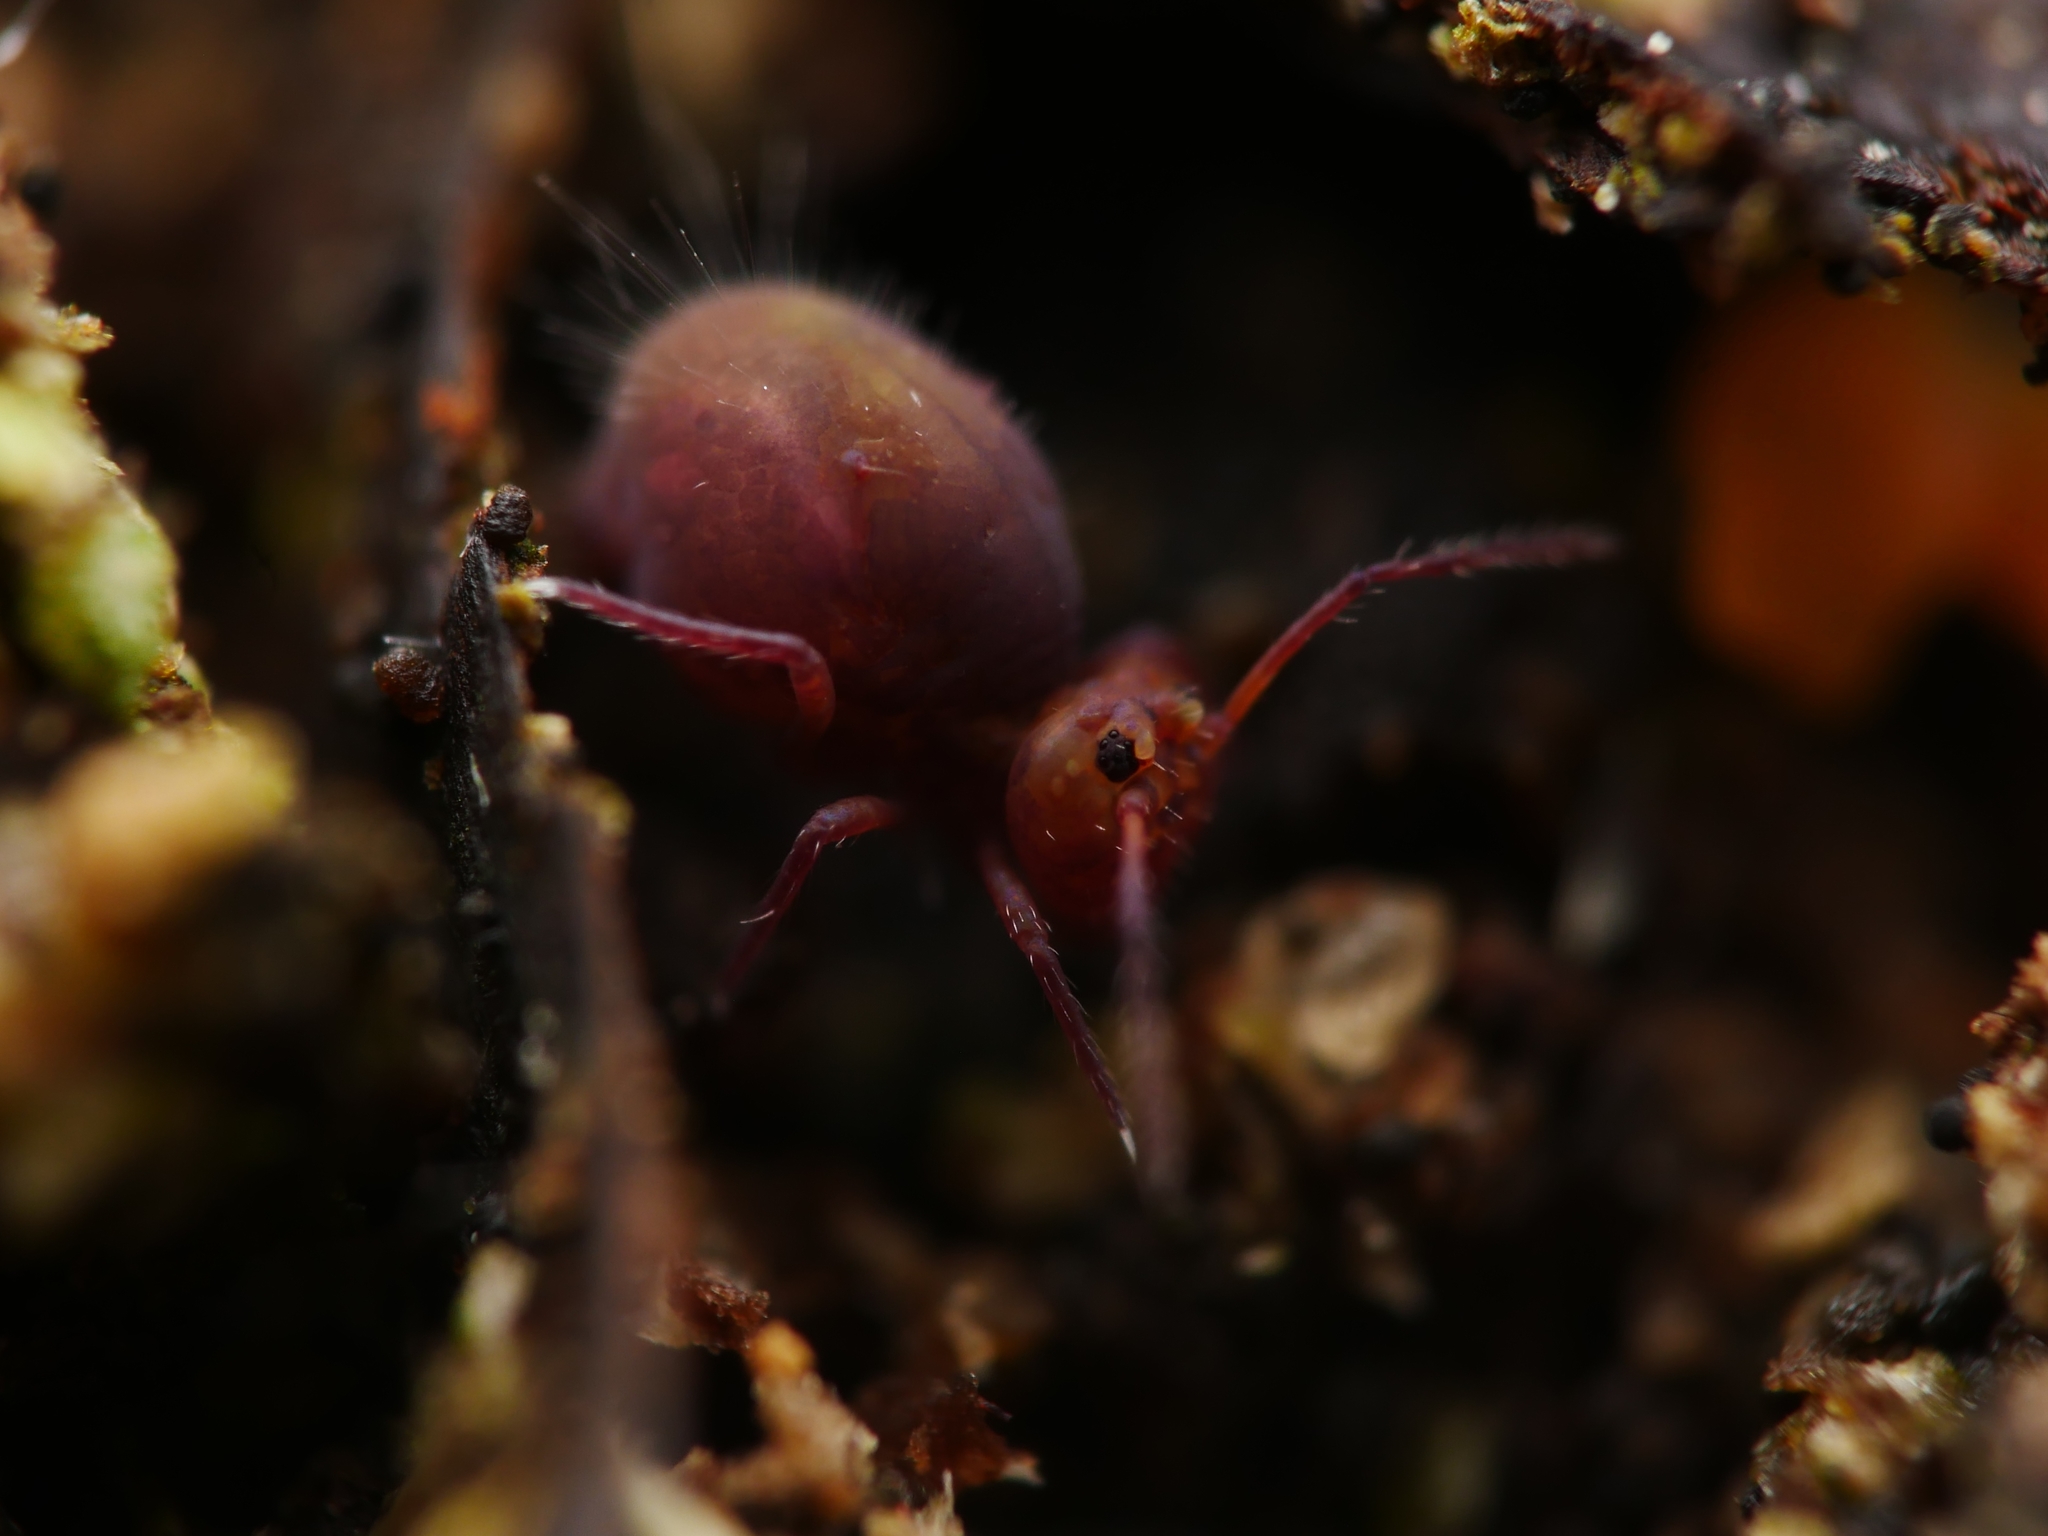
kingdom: Animalia
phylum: Arthropoda
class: Collembola
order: Symphypleona
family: Dicyrtomidae
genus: Dicyrtoma
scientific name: Dicyrtoma fusca
